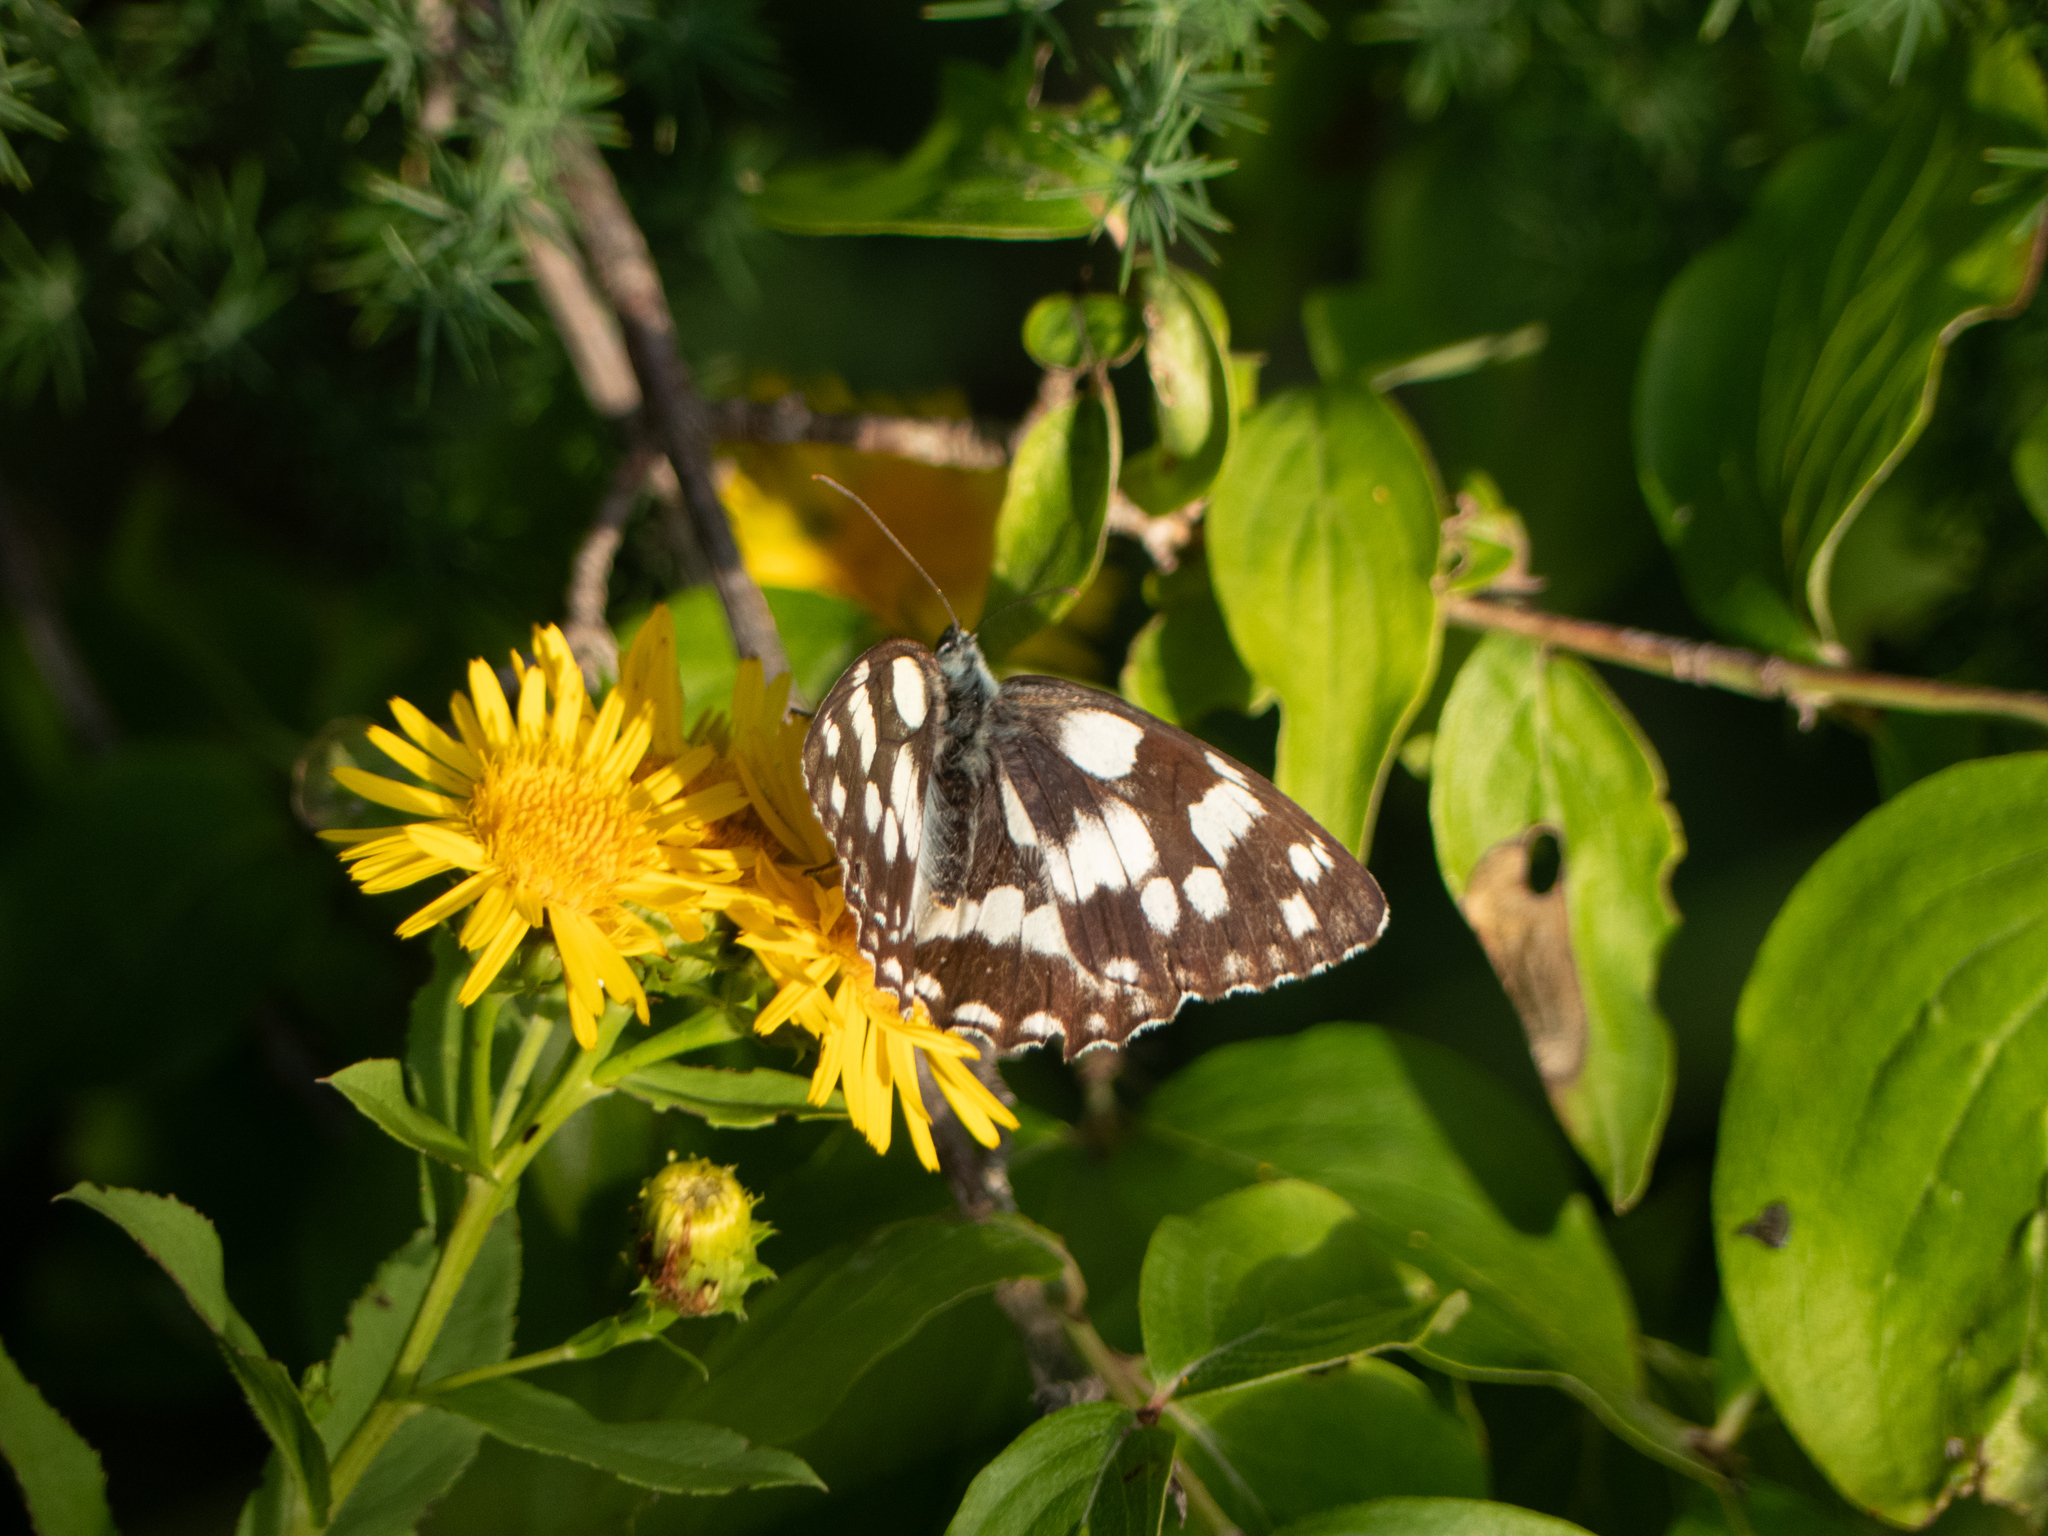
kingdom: Animalia
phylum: Arthropoda
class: Insecta
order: Lepidoptera
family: Nymphalidae
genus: Melanargia
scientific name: Melanargia galathea
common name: Marbled white
